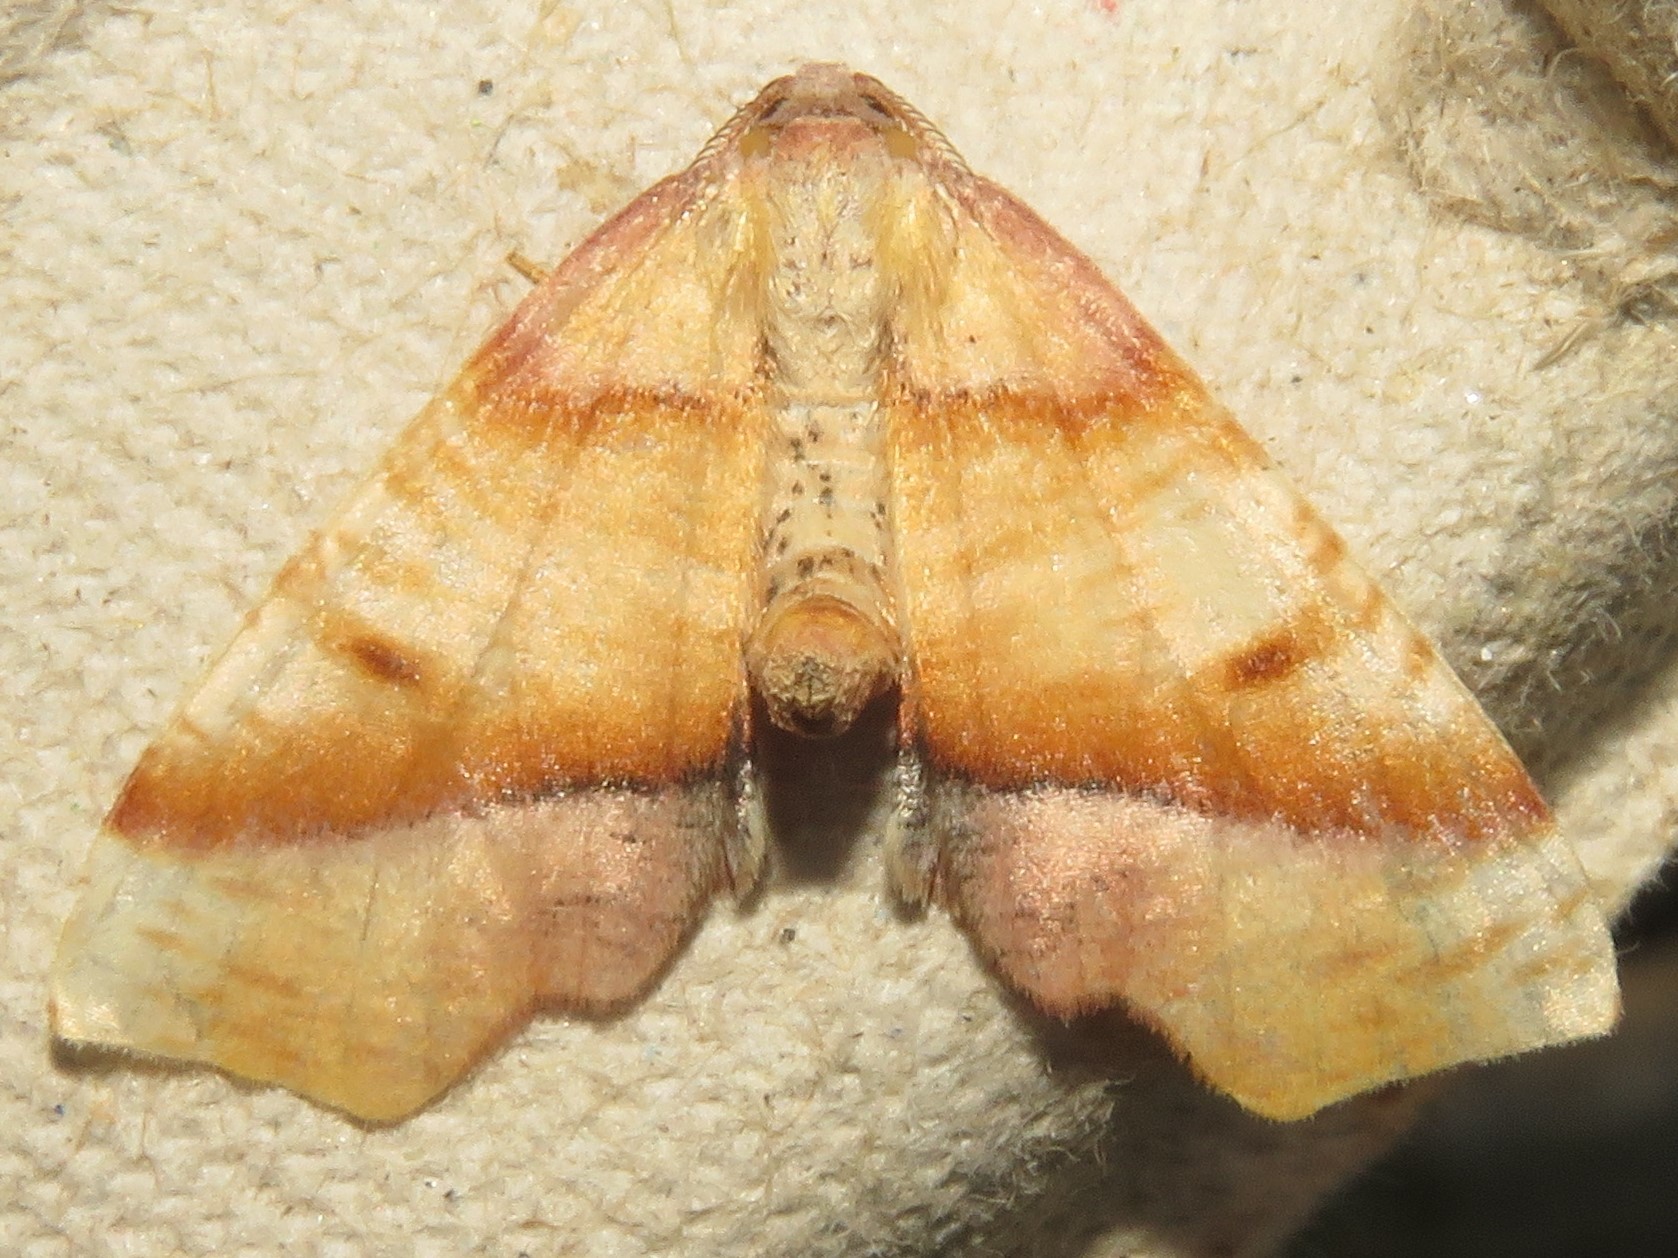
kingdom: Animalia
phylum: Arthropoda
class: Insecta
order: Lepidoptera
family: Geometridae
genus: Plagodis
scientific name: Plagodis phlogosaria
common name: Straight-lined plagodis
